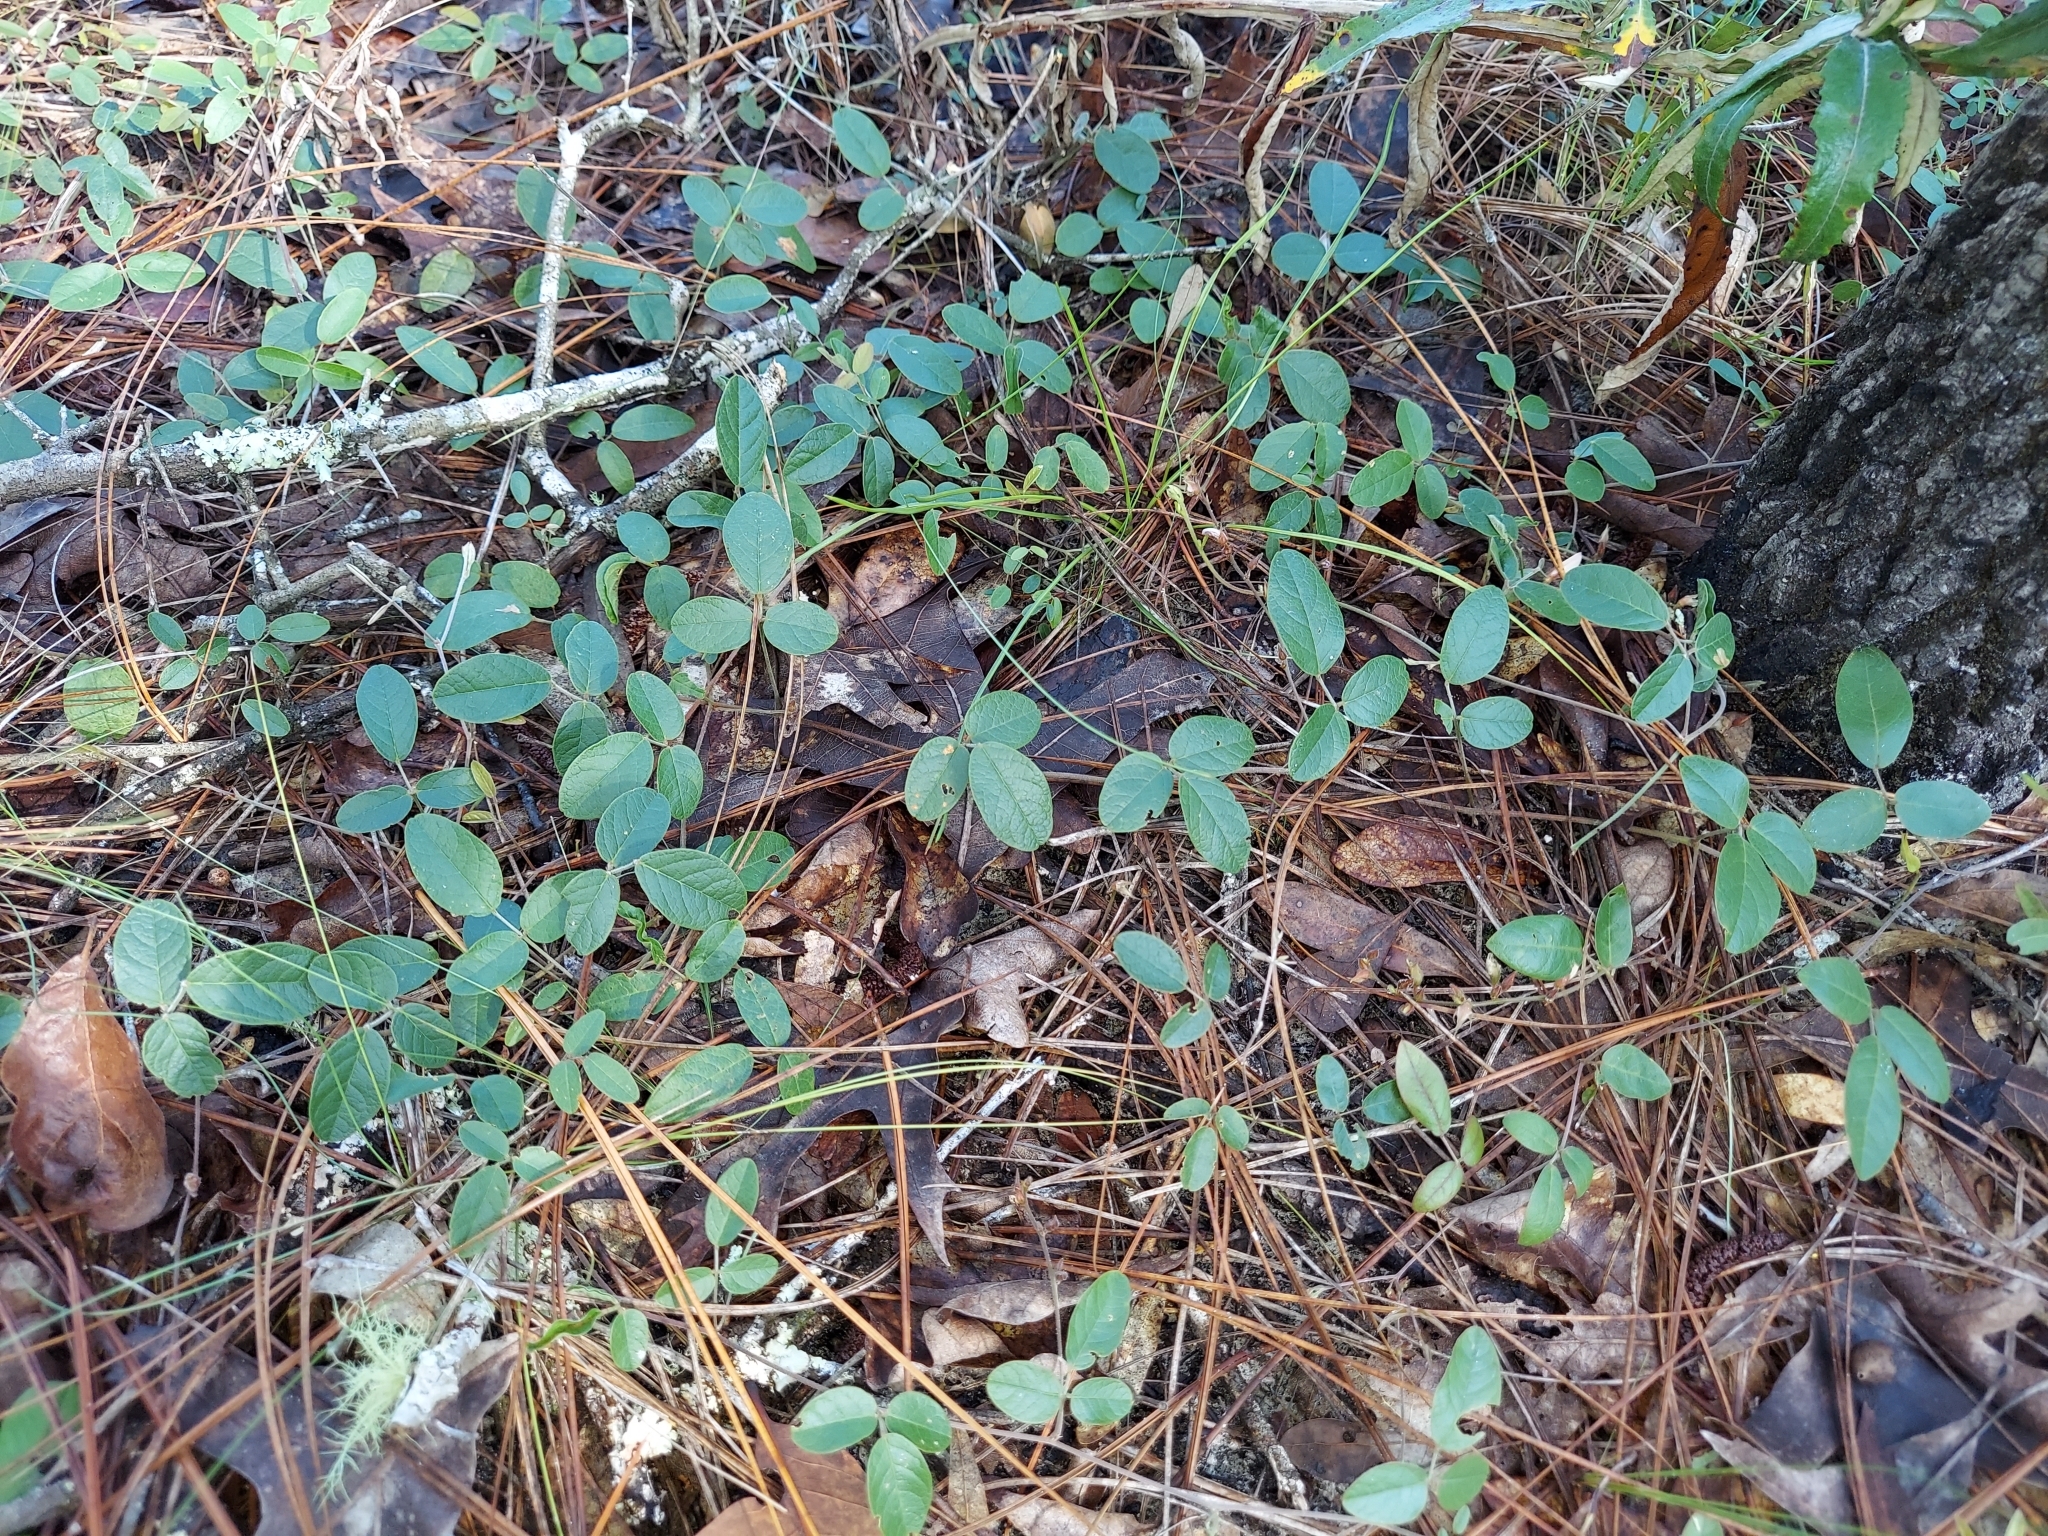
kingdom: Plantae
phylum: Tracheophyta
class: Magnoliopsida
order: Fabales
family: Fabaceae
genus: Galactia
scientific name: Galactia floridana
